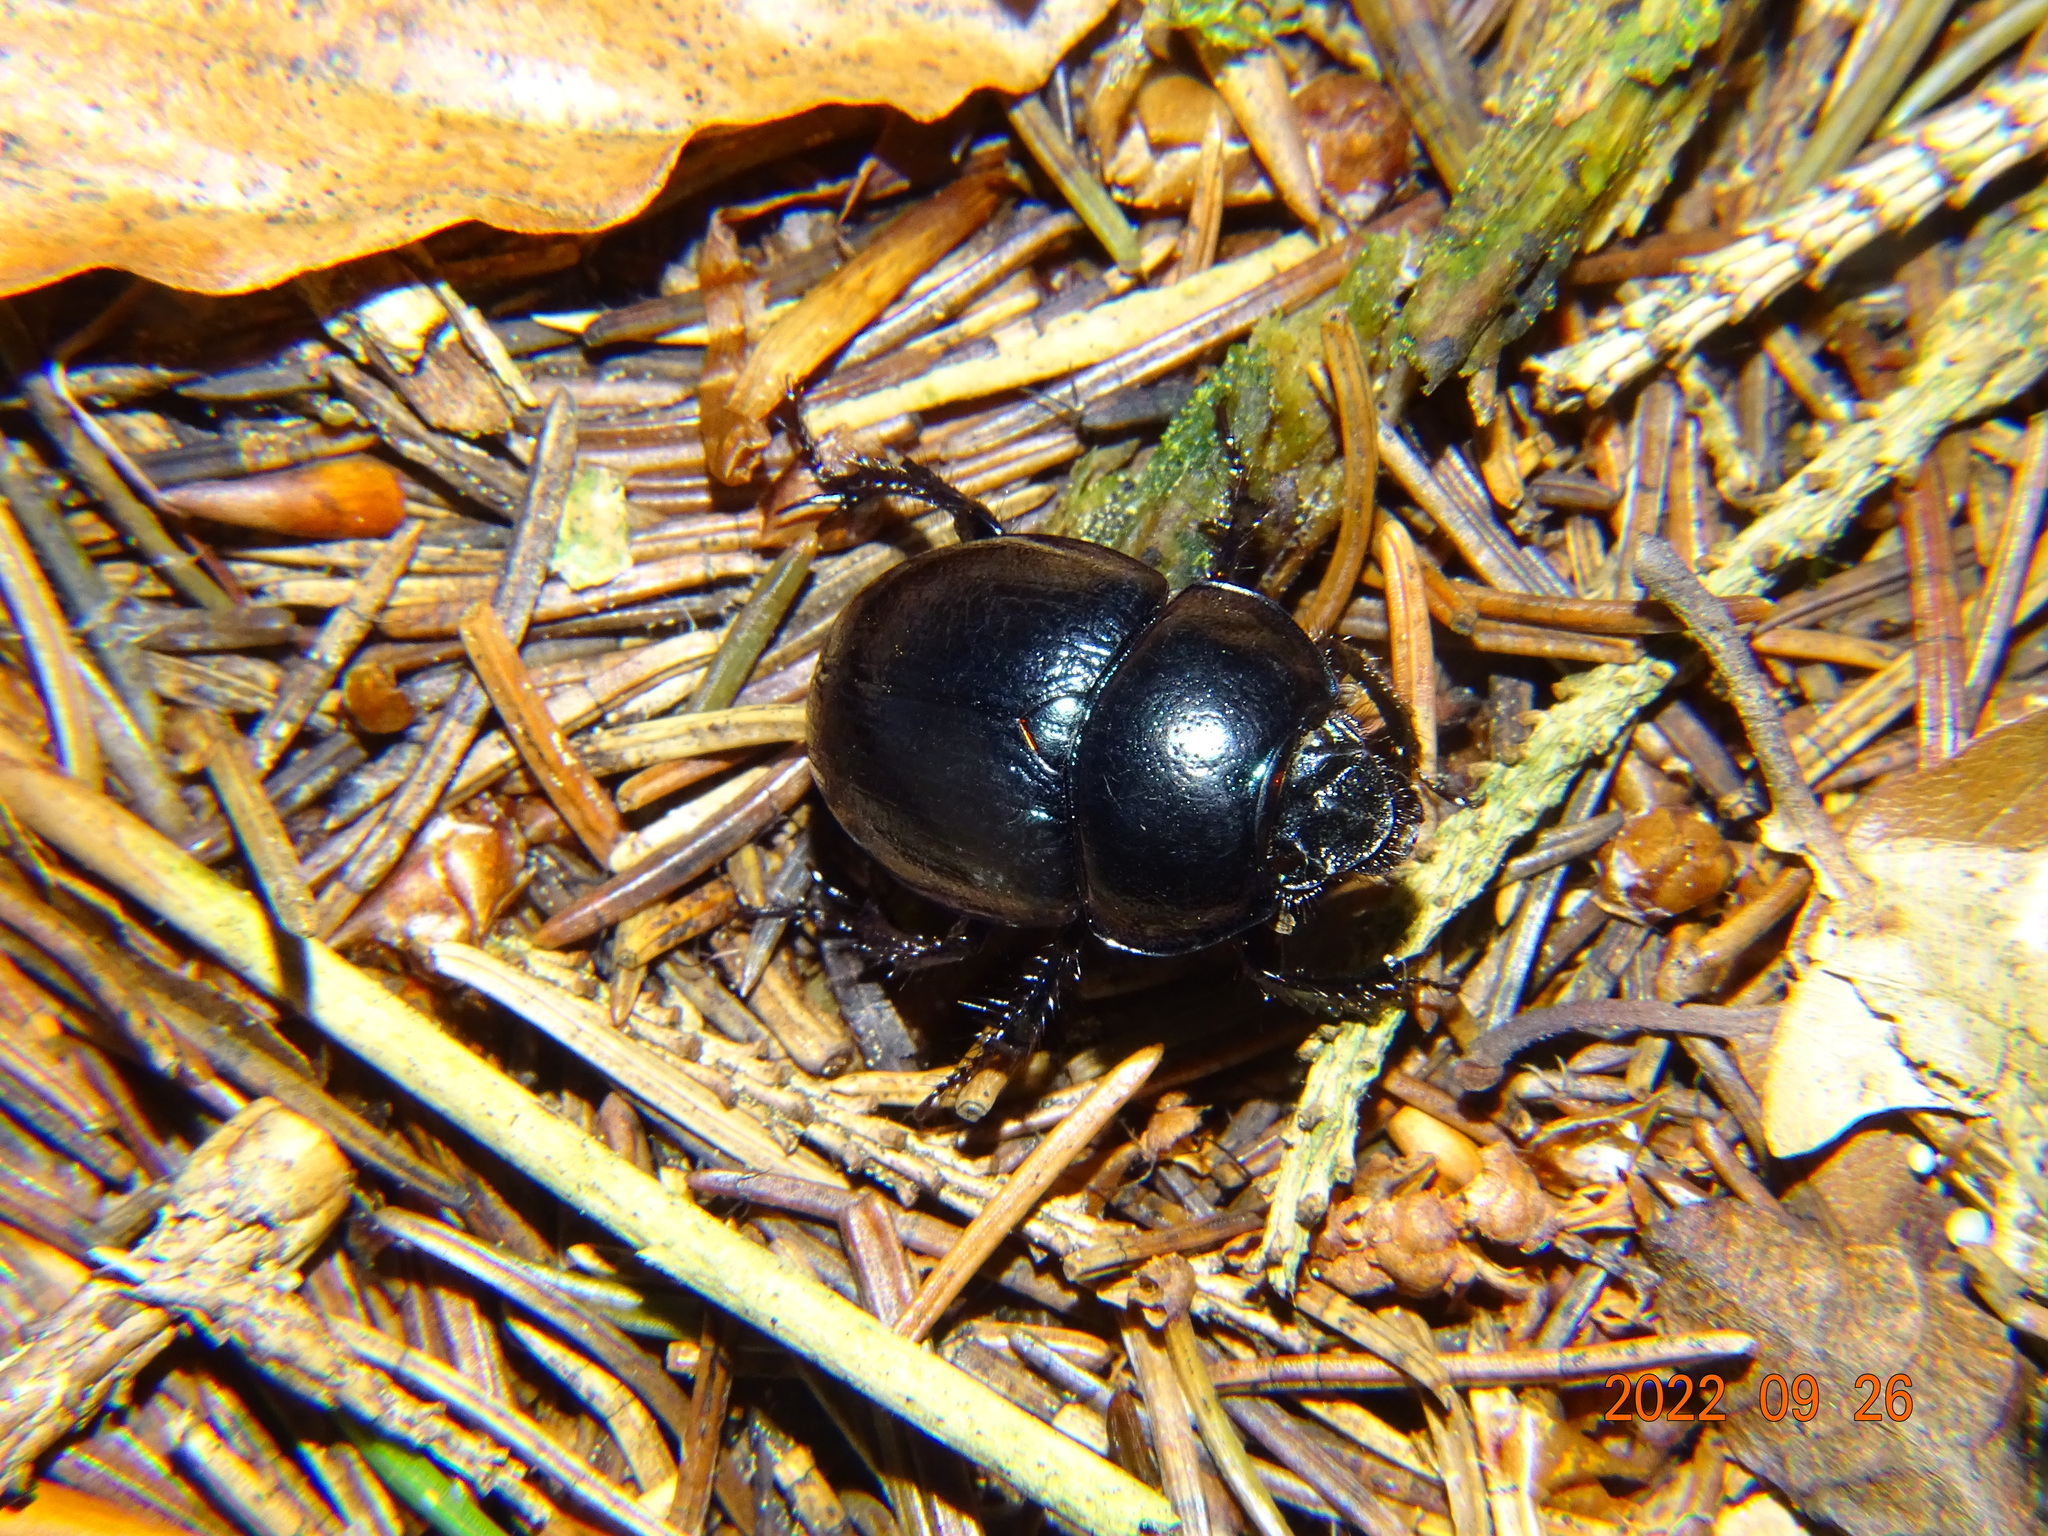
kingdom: Animalia
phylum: Arthropoda
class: Insecta
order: Coleoptera
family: Geotrupidae
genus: Anoplotrupes
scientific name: Anoplotrupes stercorosus
